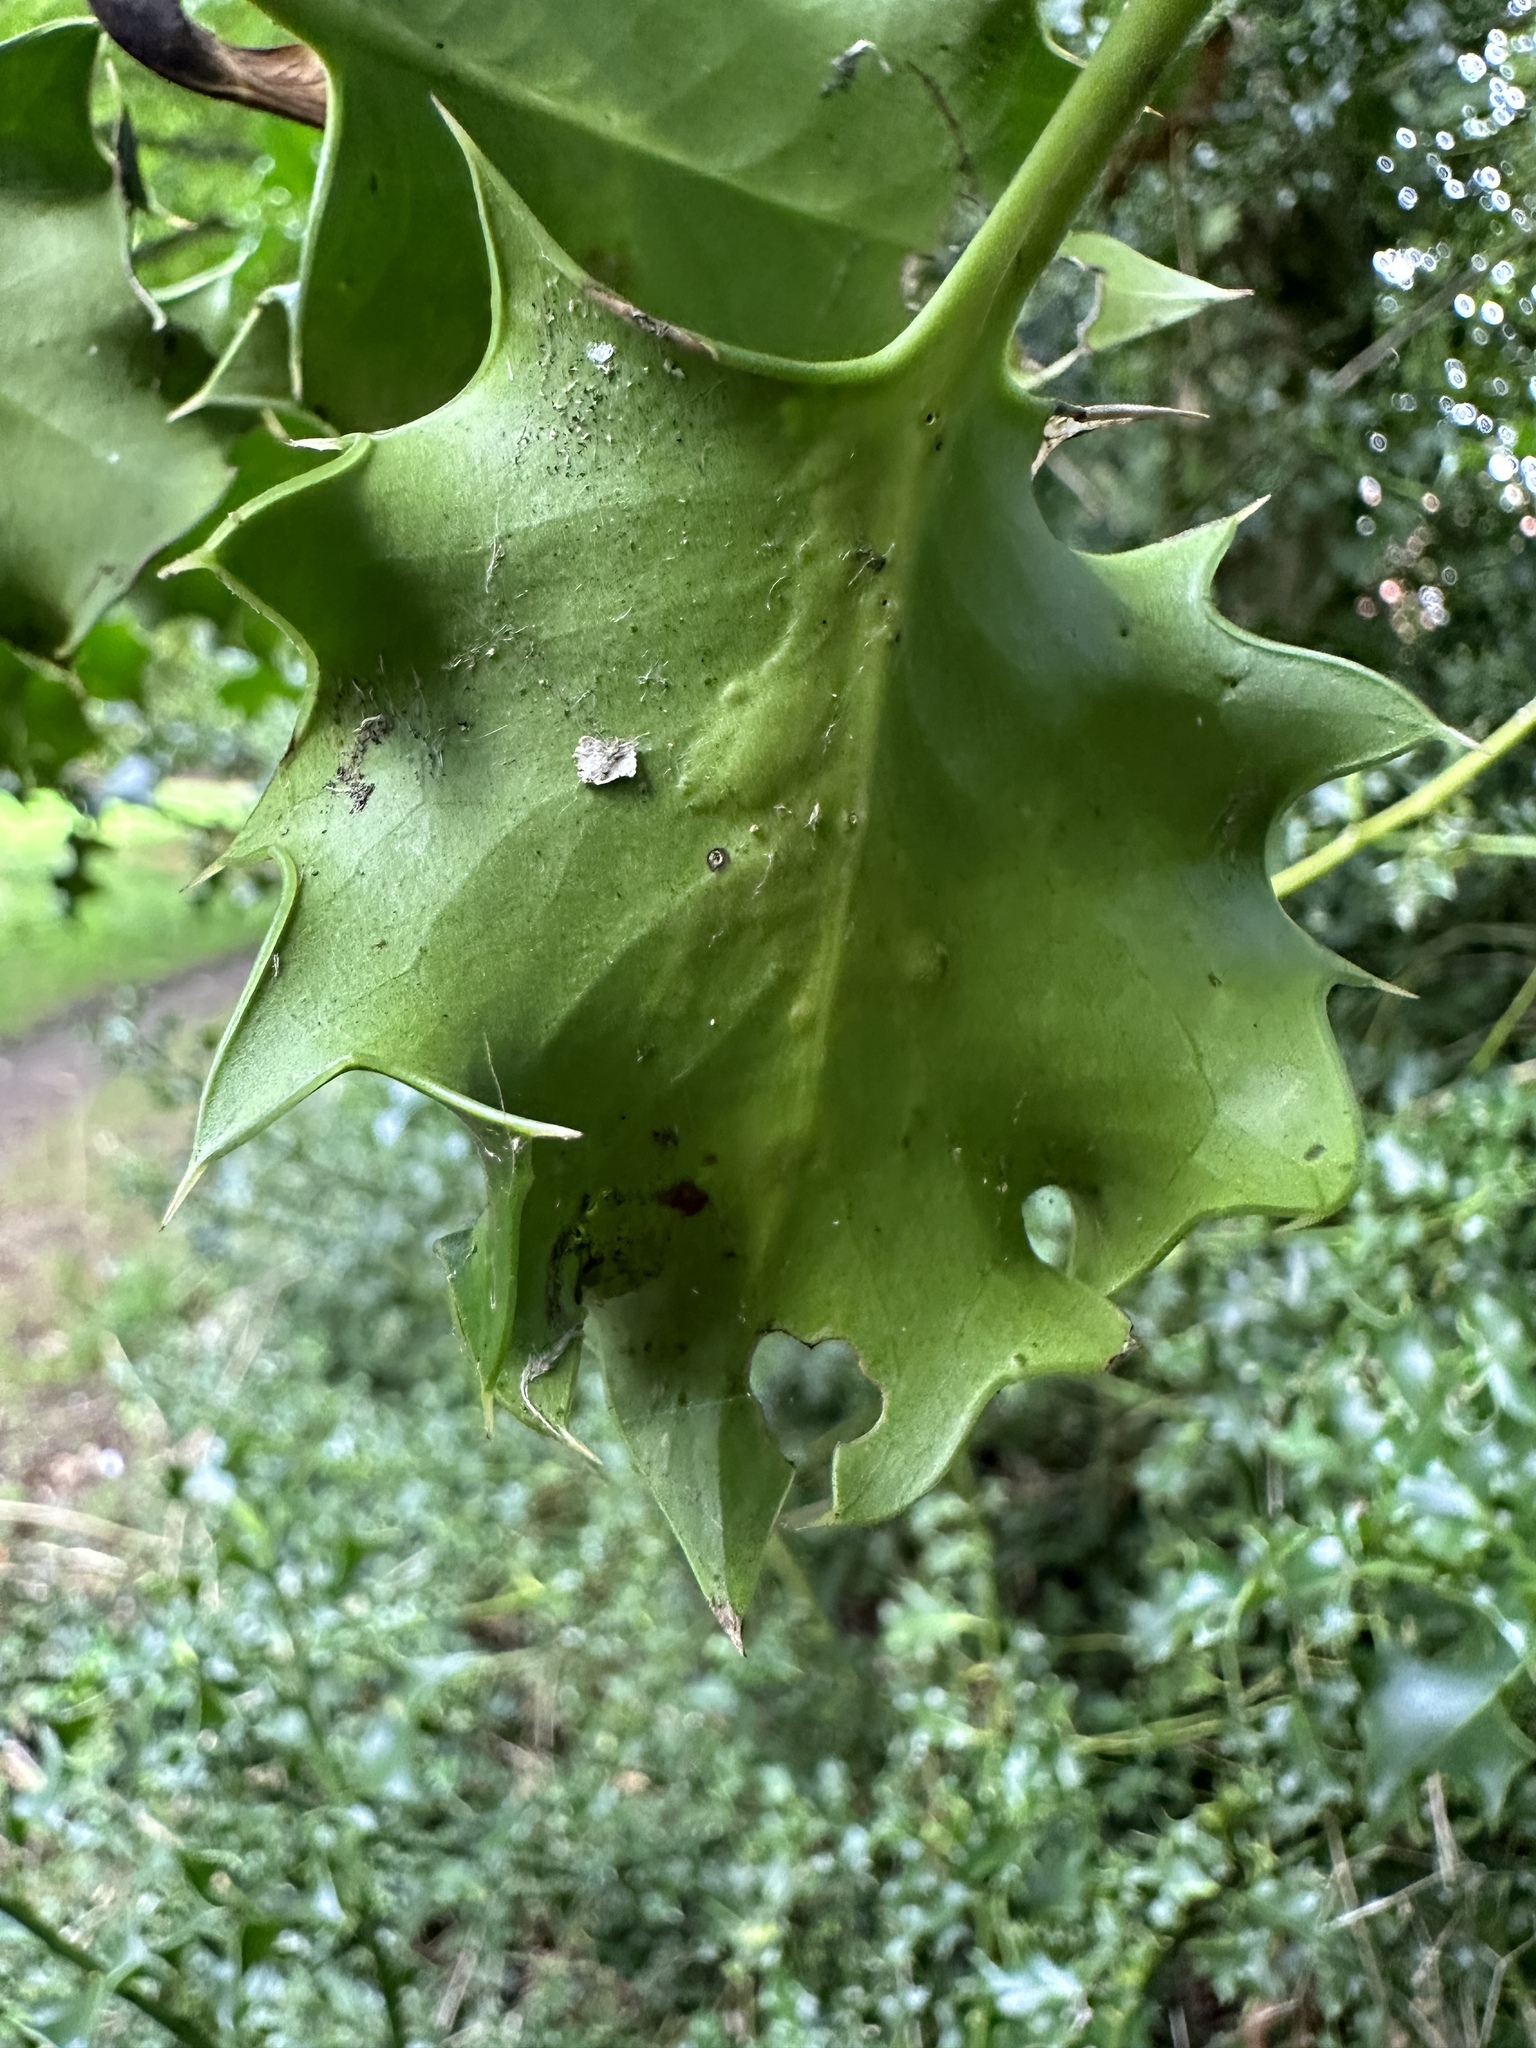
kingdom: Animalia
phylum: Arthropoda
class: Insecta
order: Diptera
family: Agromyzidae
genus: Phytomyza
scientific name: Phytomyza ilicis
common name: Holly leafminer
